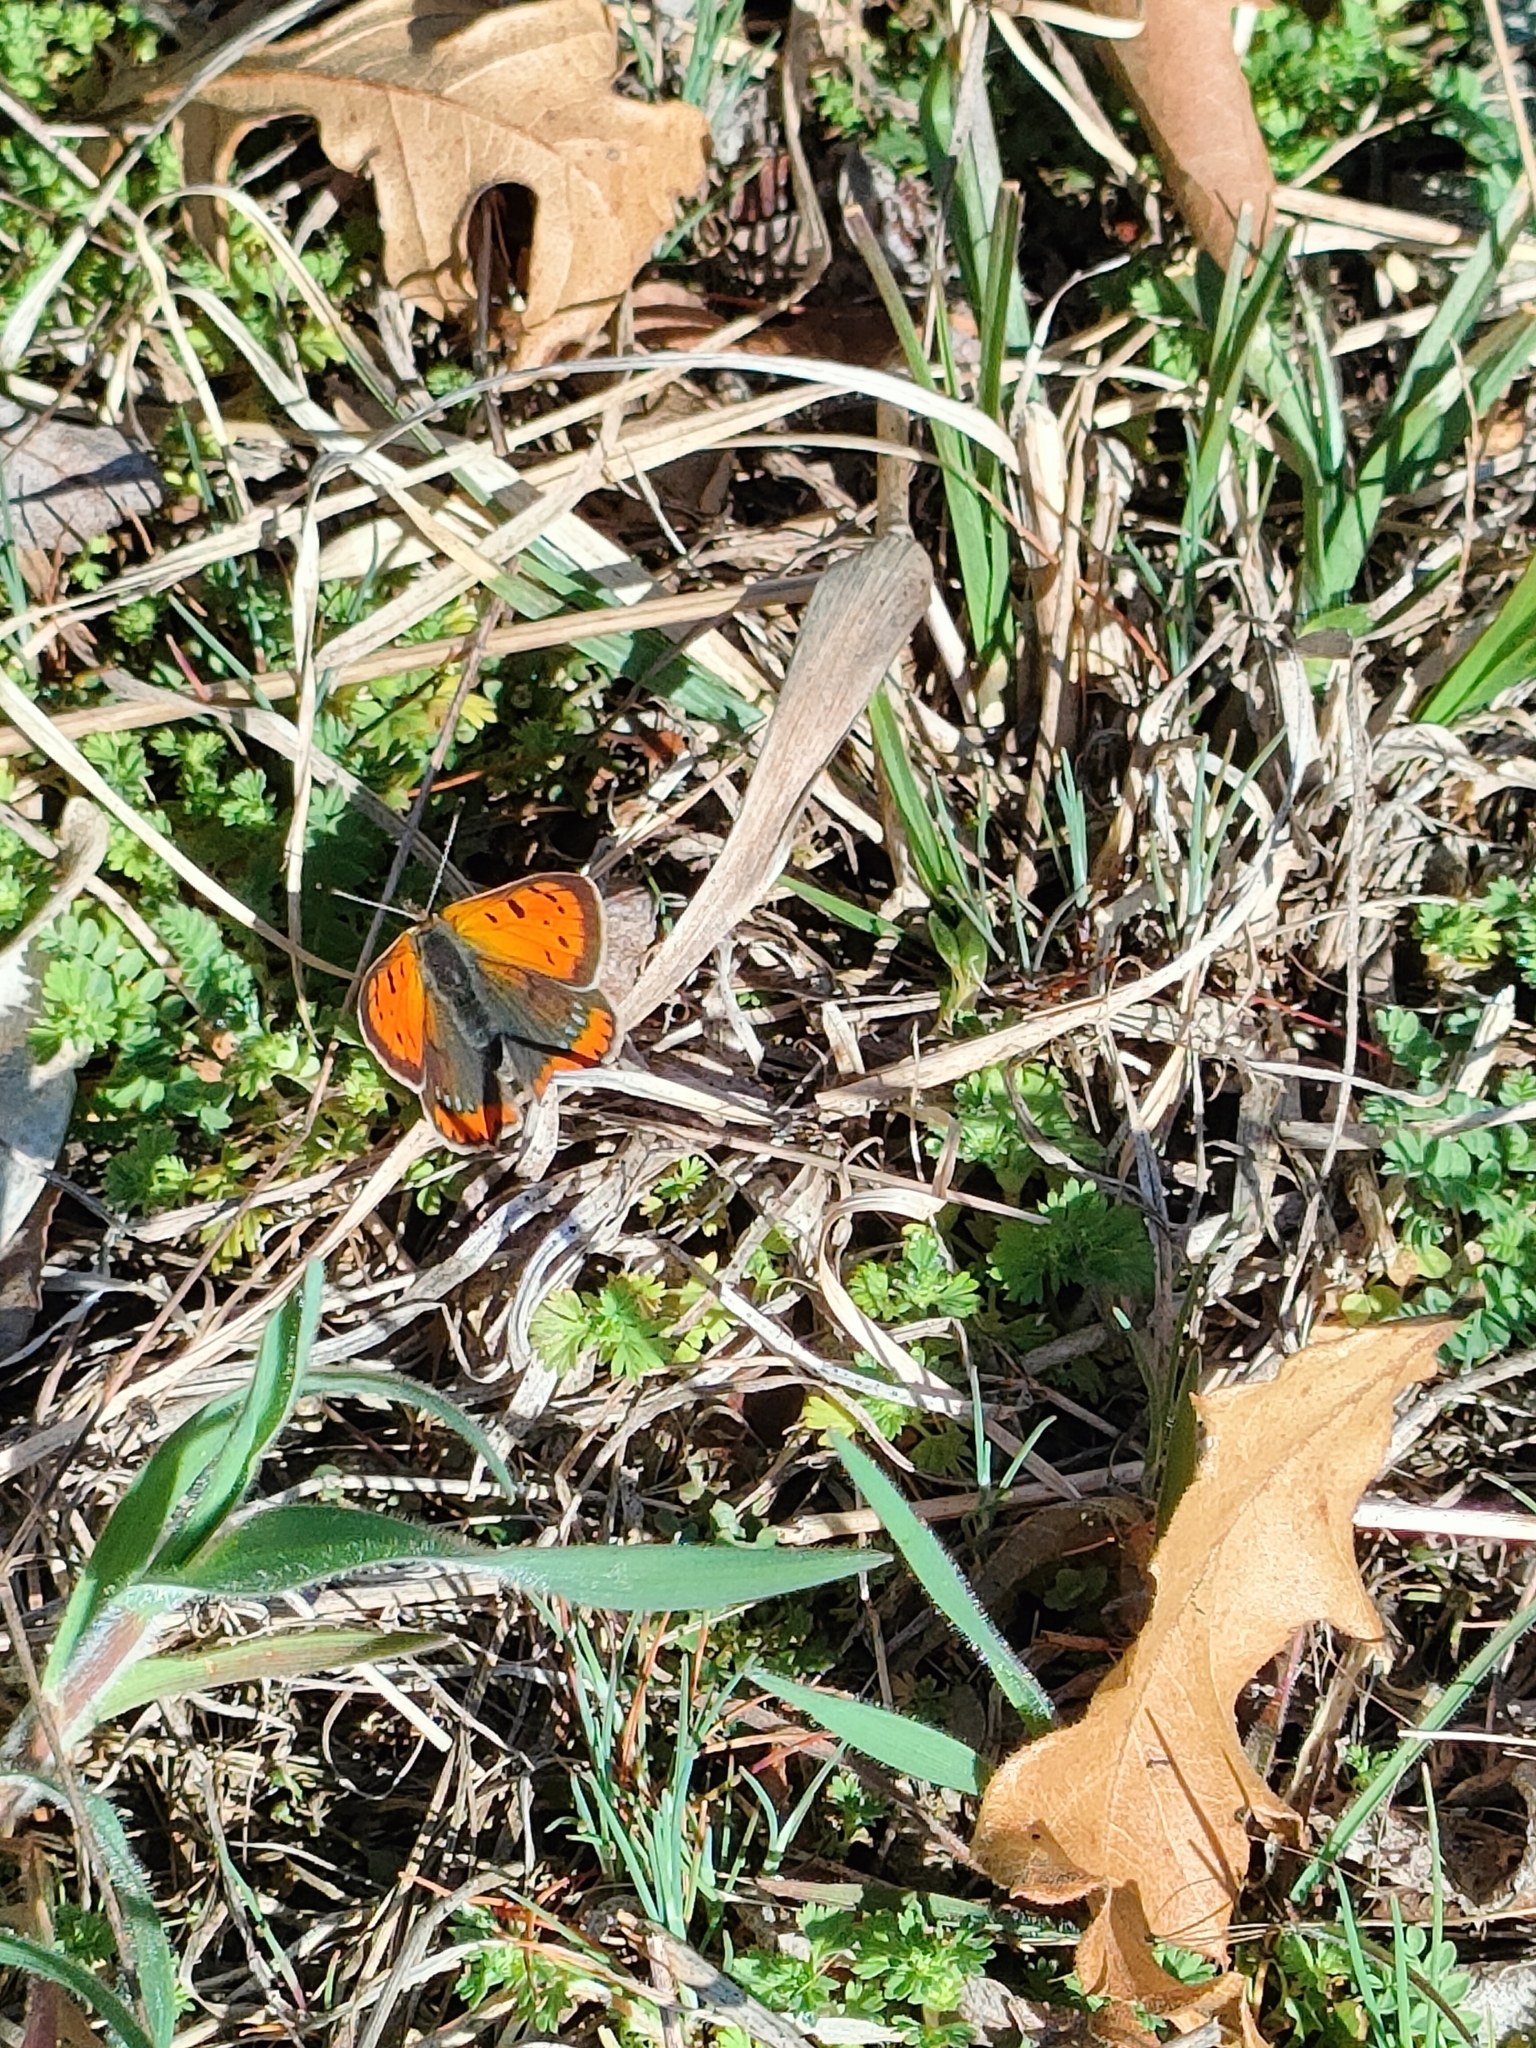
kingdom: Animalia
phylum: Arthropoda
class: Insecta
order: Lepidoptera
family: Lycaenidae
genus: Lycaena
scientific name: Lycaena phlaeas
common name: Small copper
